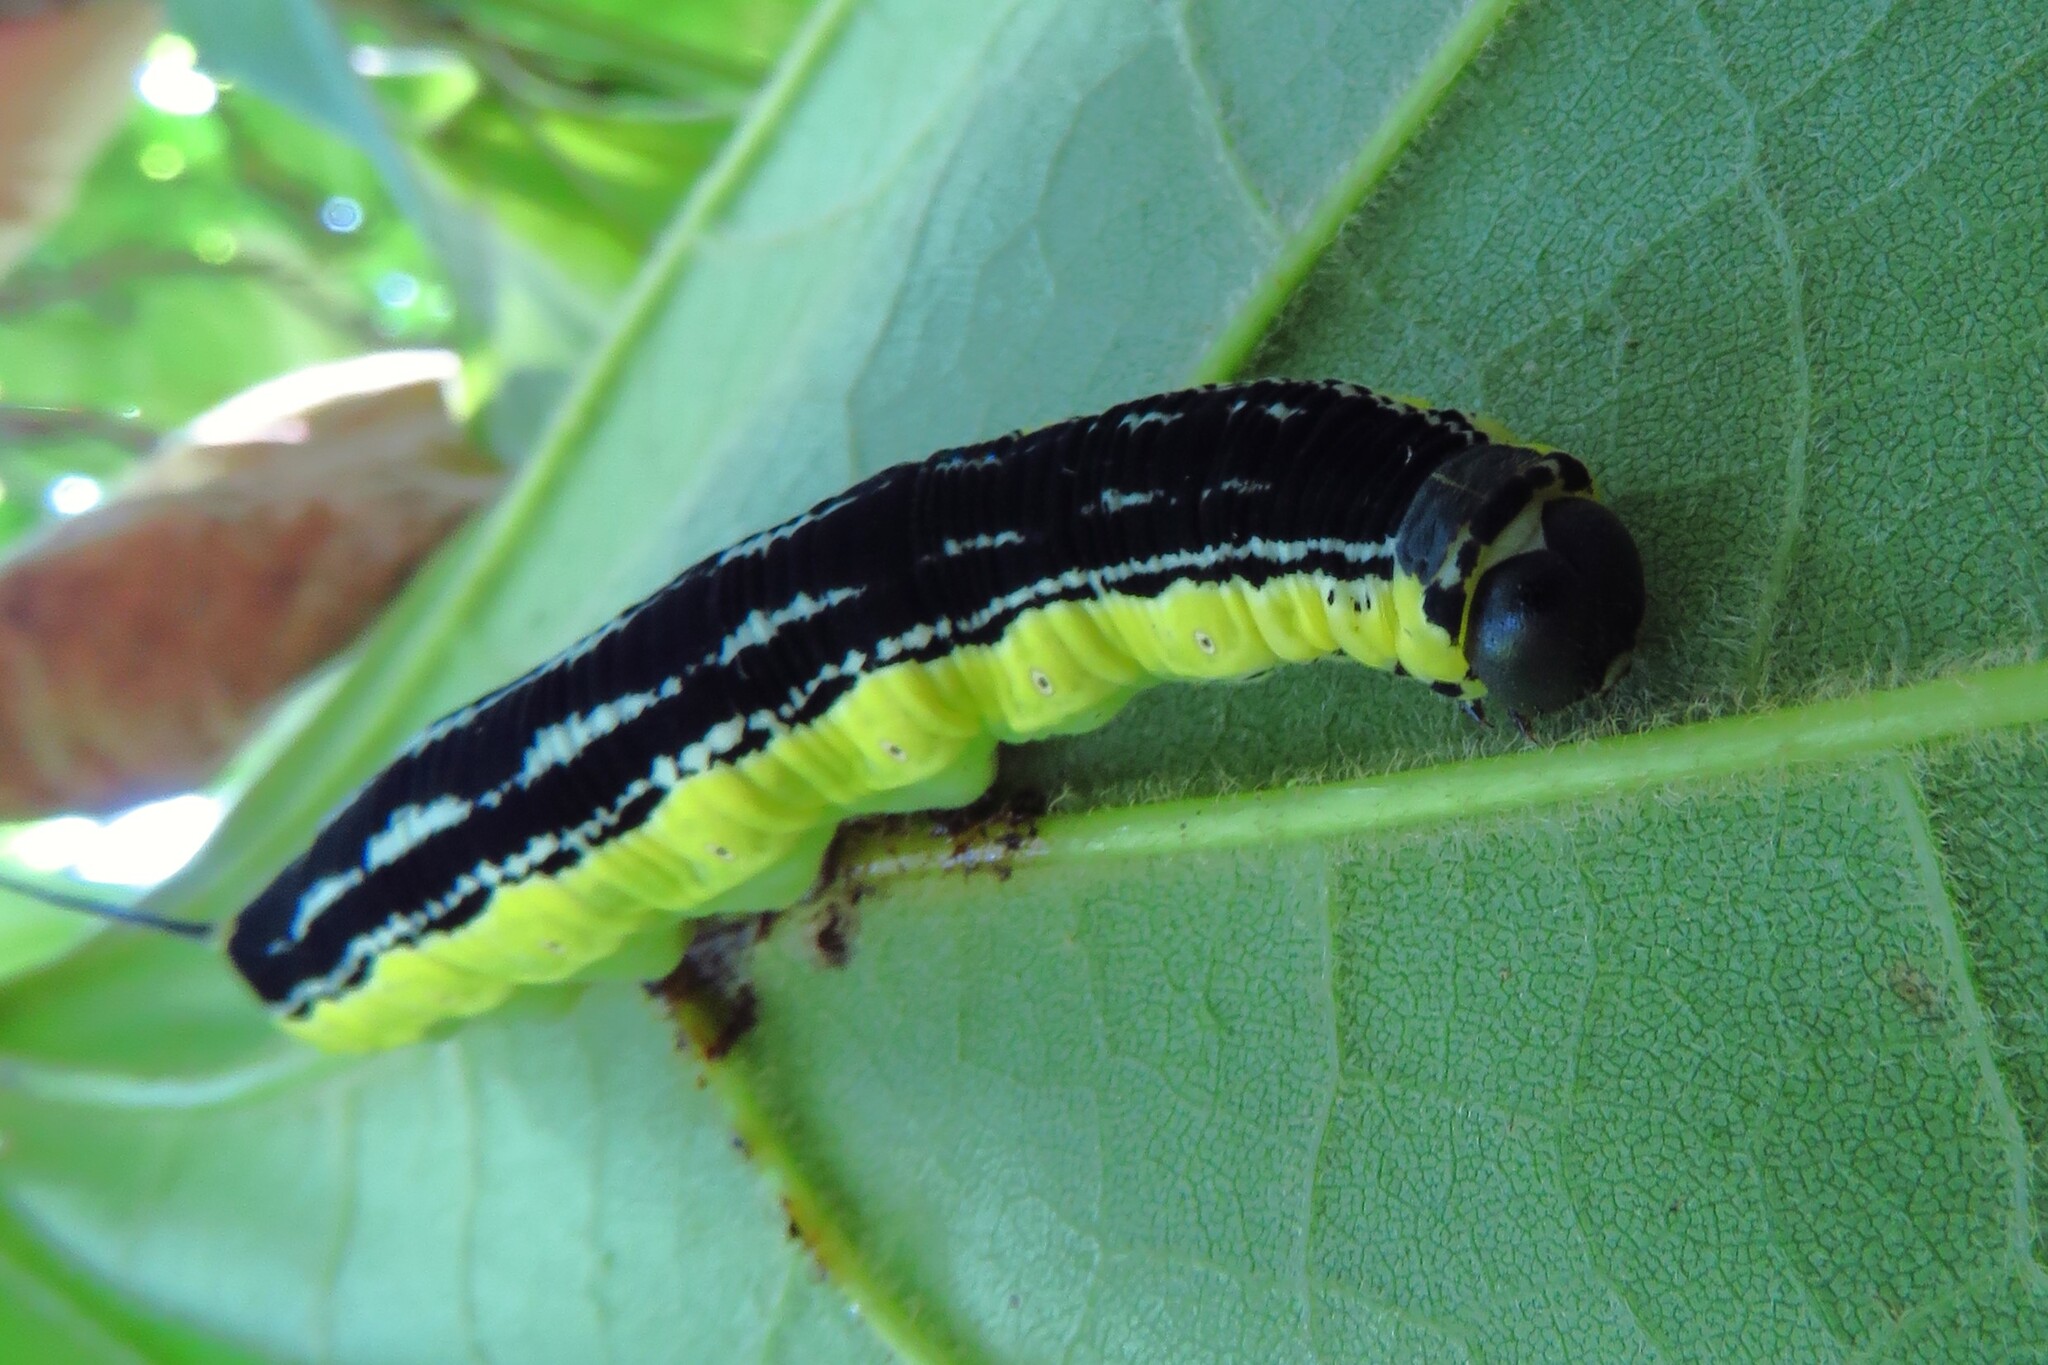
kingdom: Animalia
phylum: Arthropoda
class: Insecta
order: Lepidoptera
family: Sphingidae
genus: Ceratomia
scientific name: Ceratomia catalpae
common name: Catalpa hornworm
